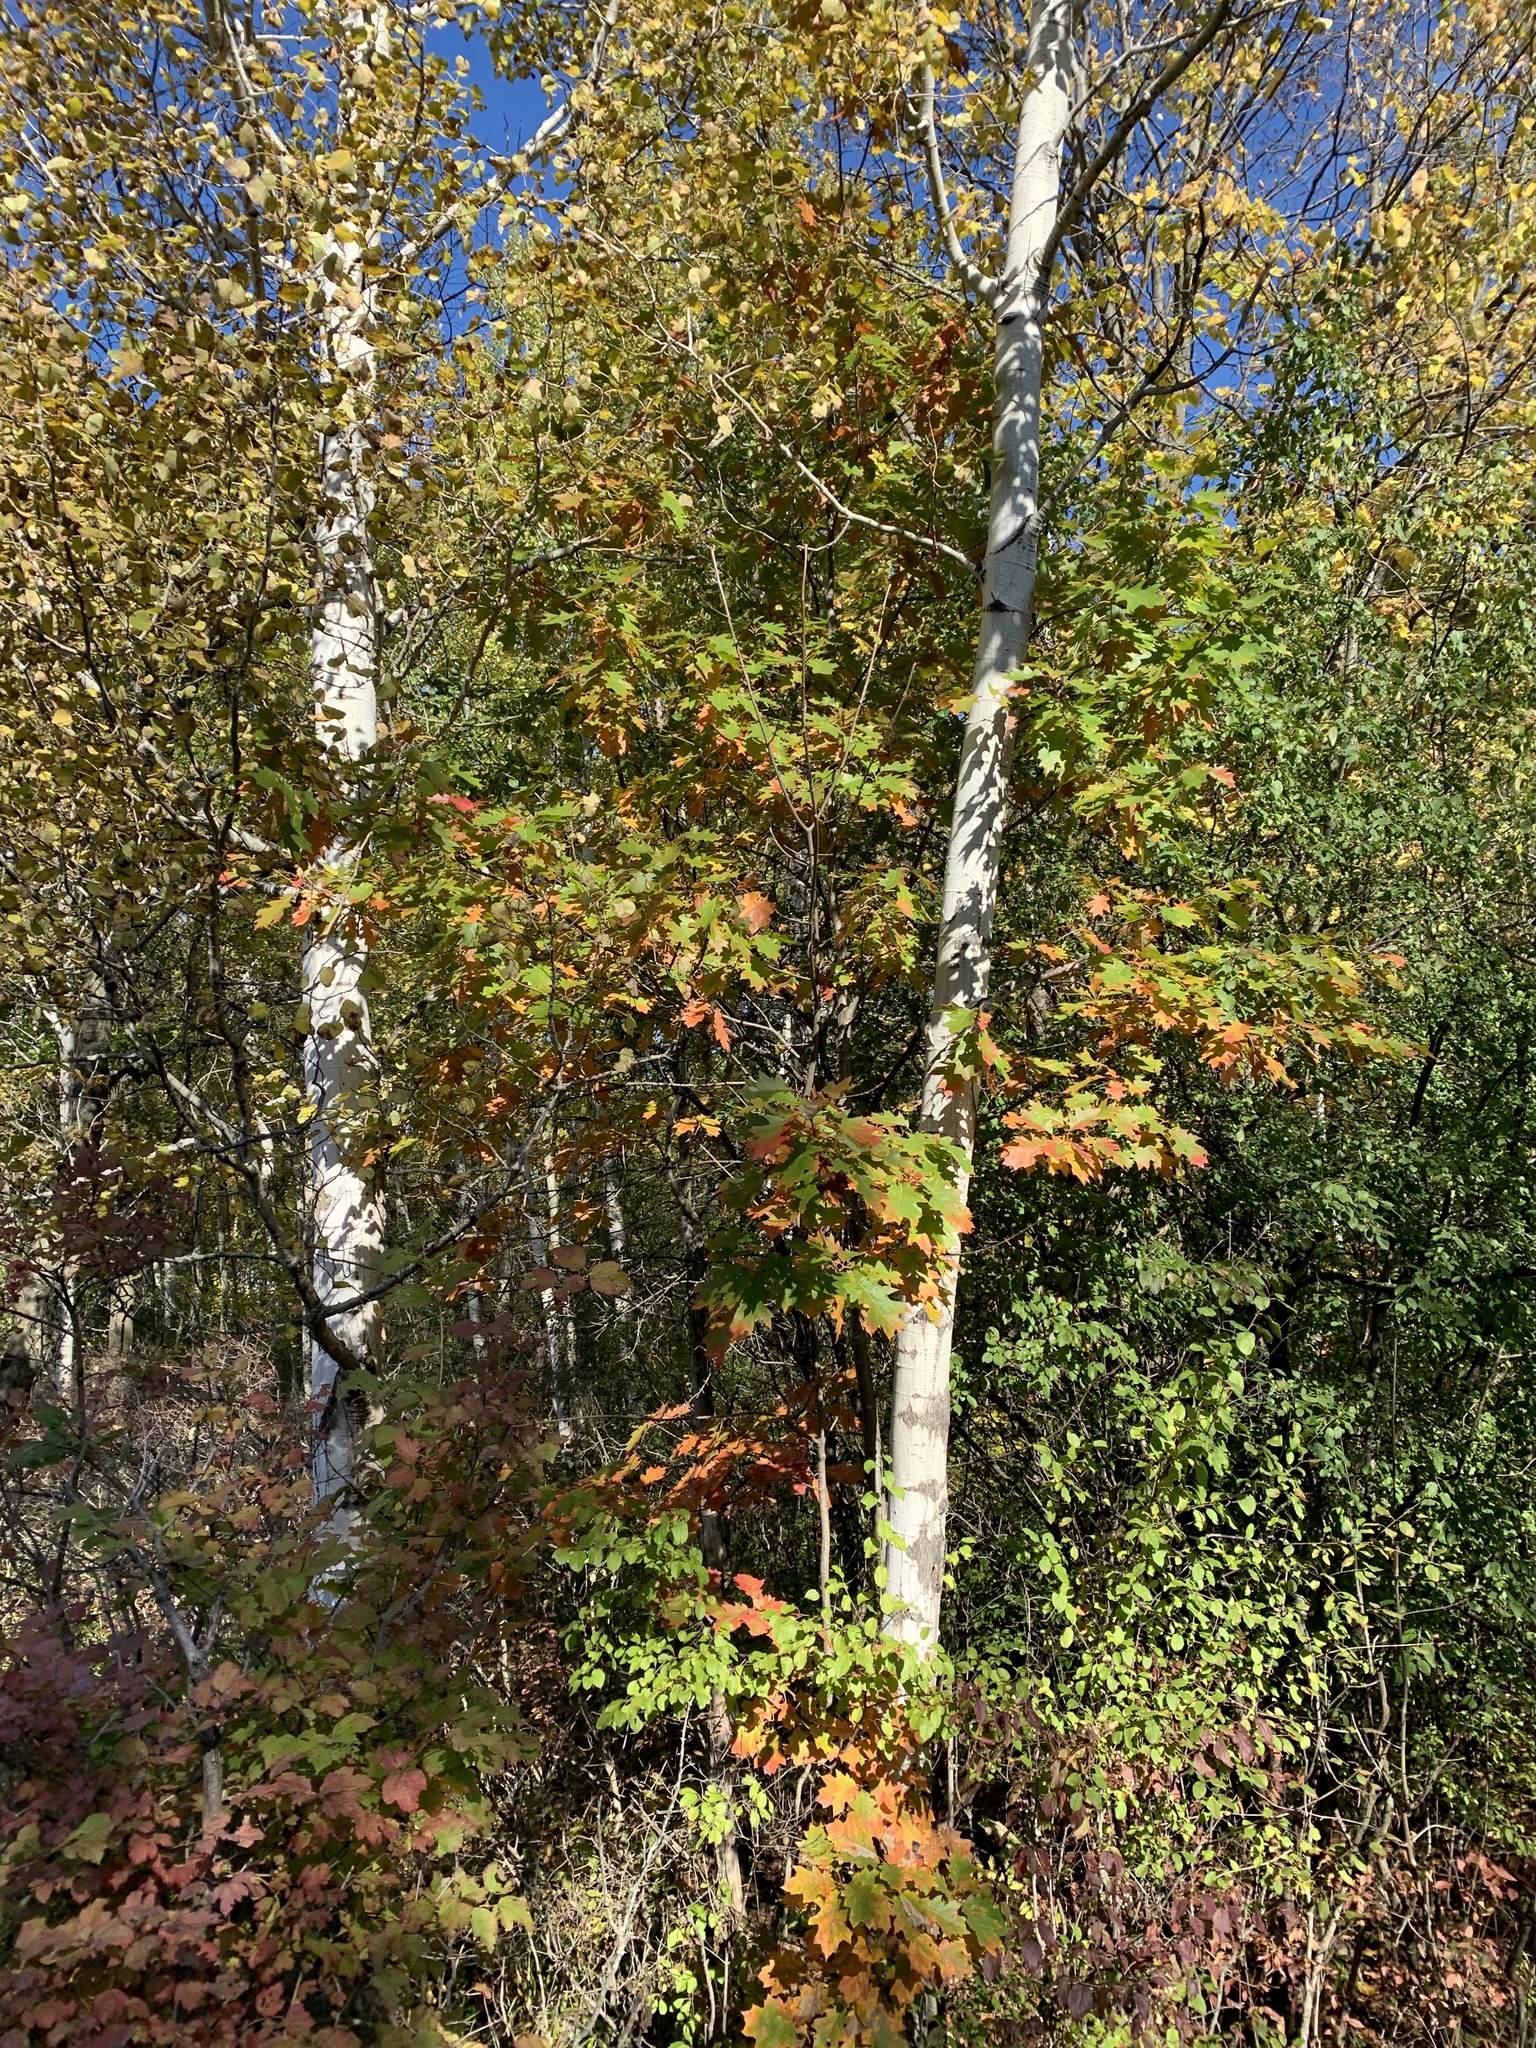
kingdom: Plantae
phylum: Tracheophyta
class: Magnoliopsida
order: Malpighiales
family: Salicaceae
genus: Populus
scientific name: Populus tremuloides
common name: Quaking aspen
